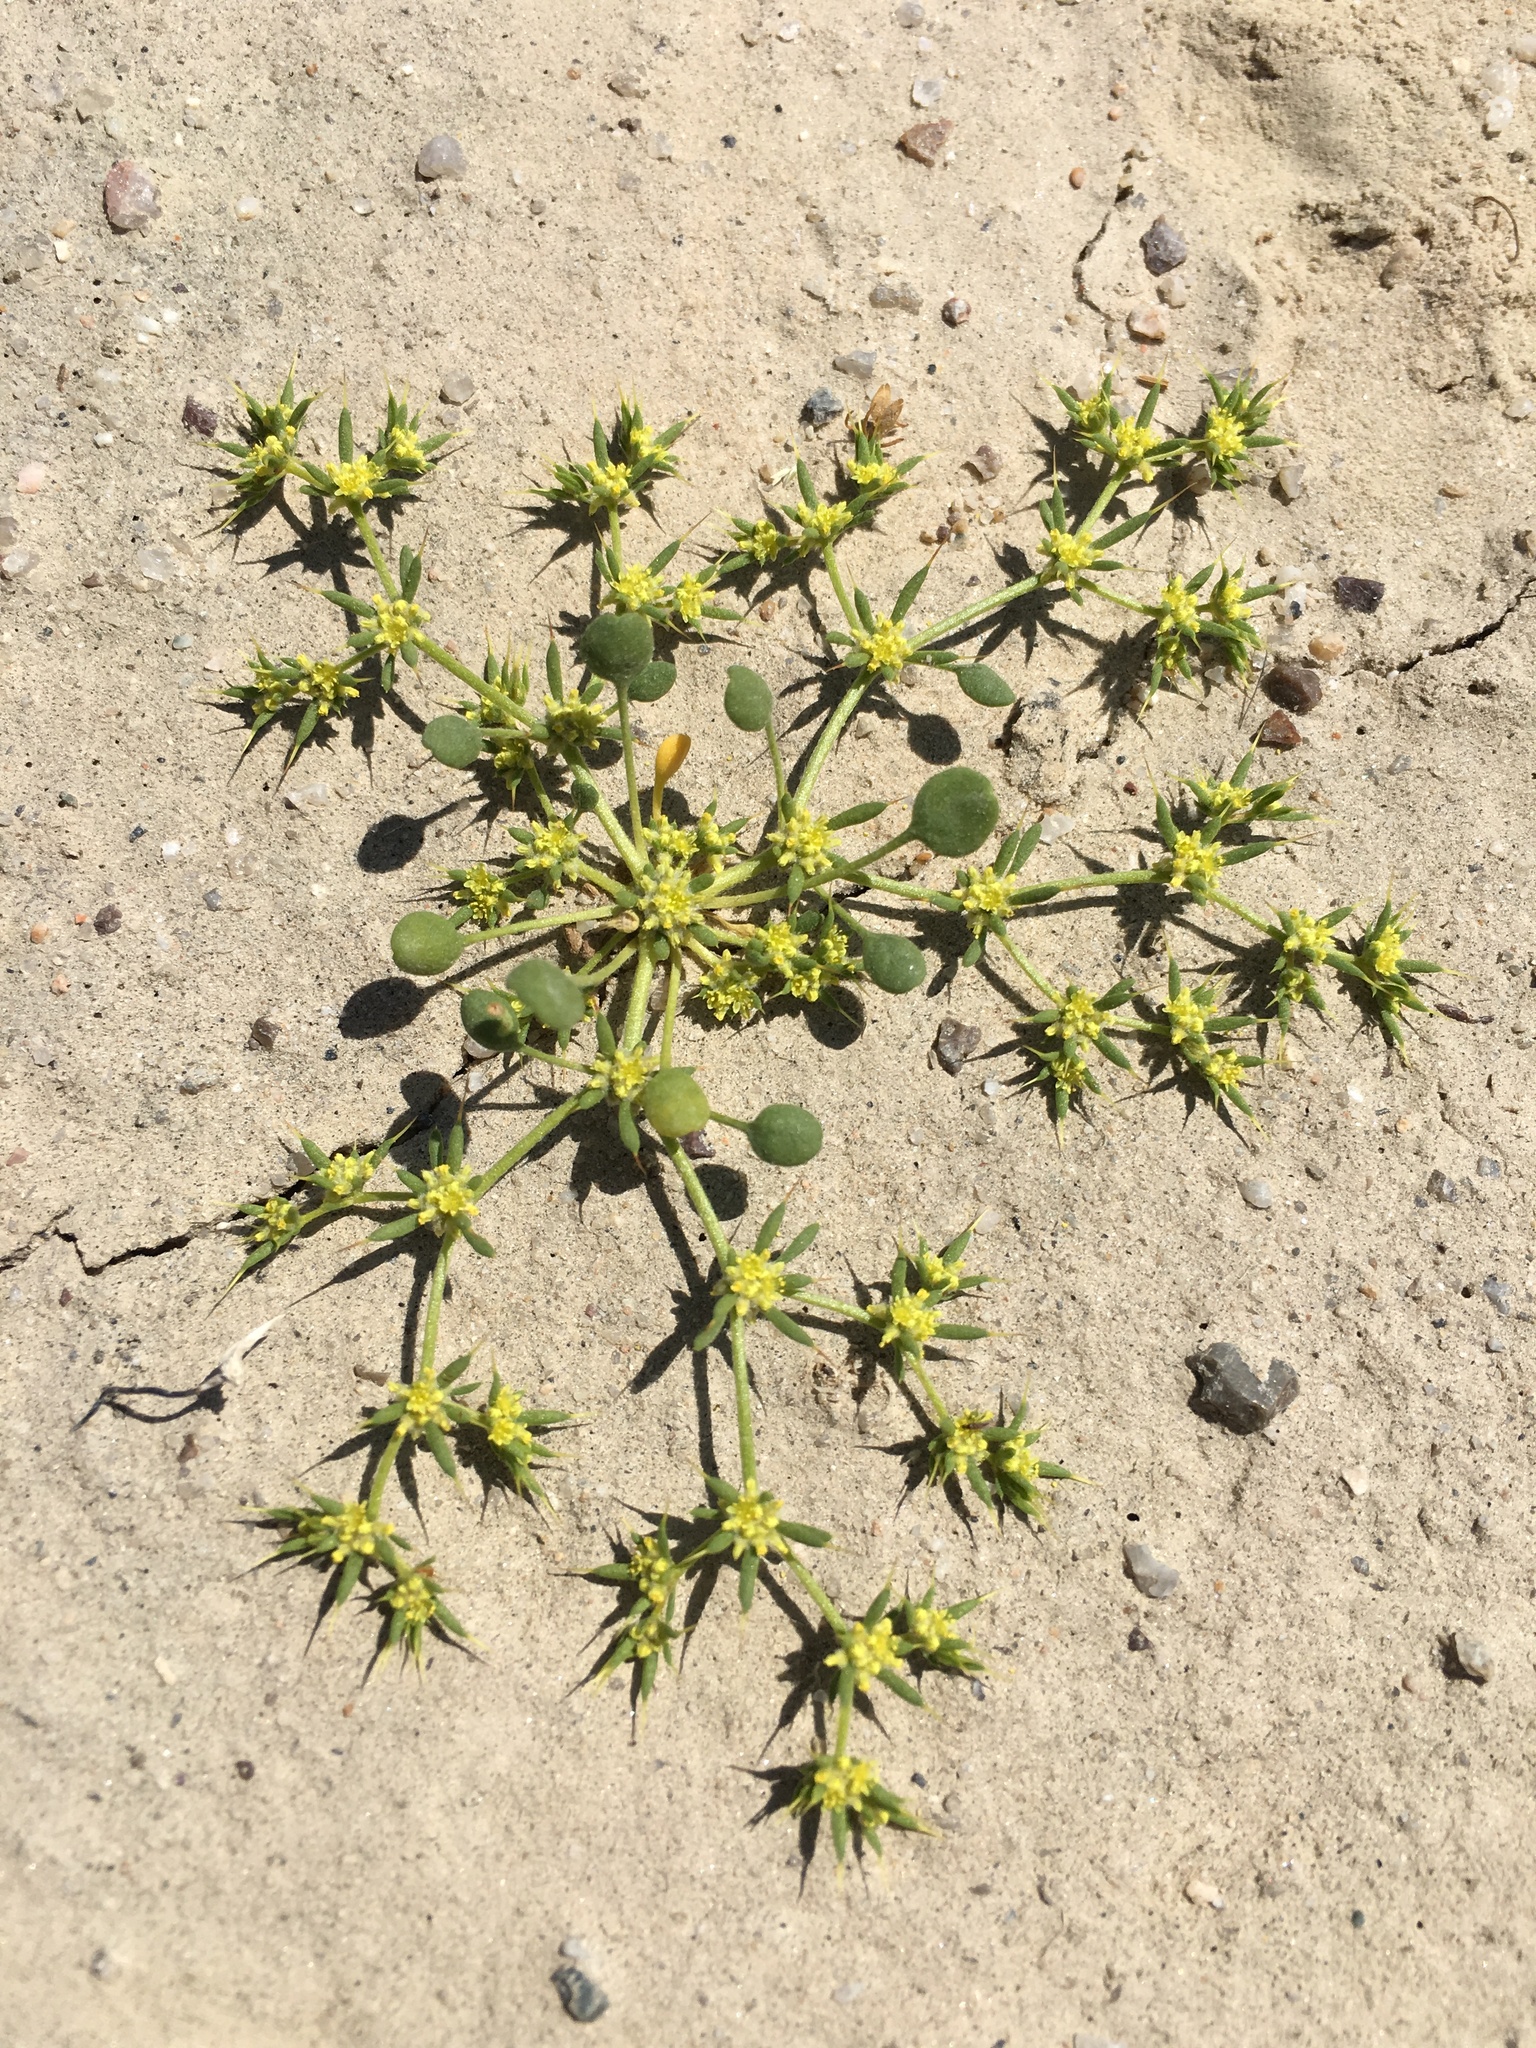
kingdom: Plantae
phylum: Tracheophyta
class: Magnoliopsida
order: Caryophyllales
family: Polygonaceae
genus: Goodmania
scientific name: Goodmania luteola
